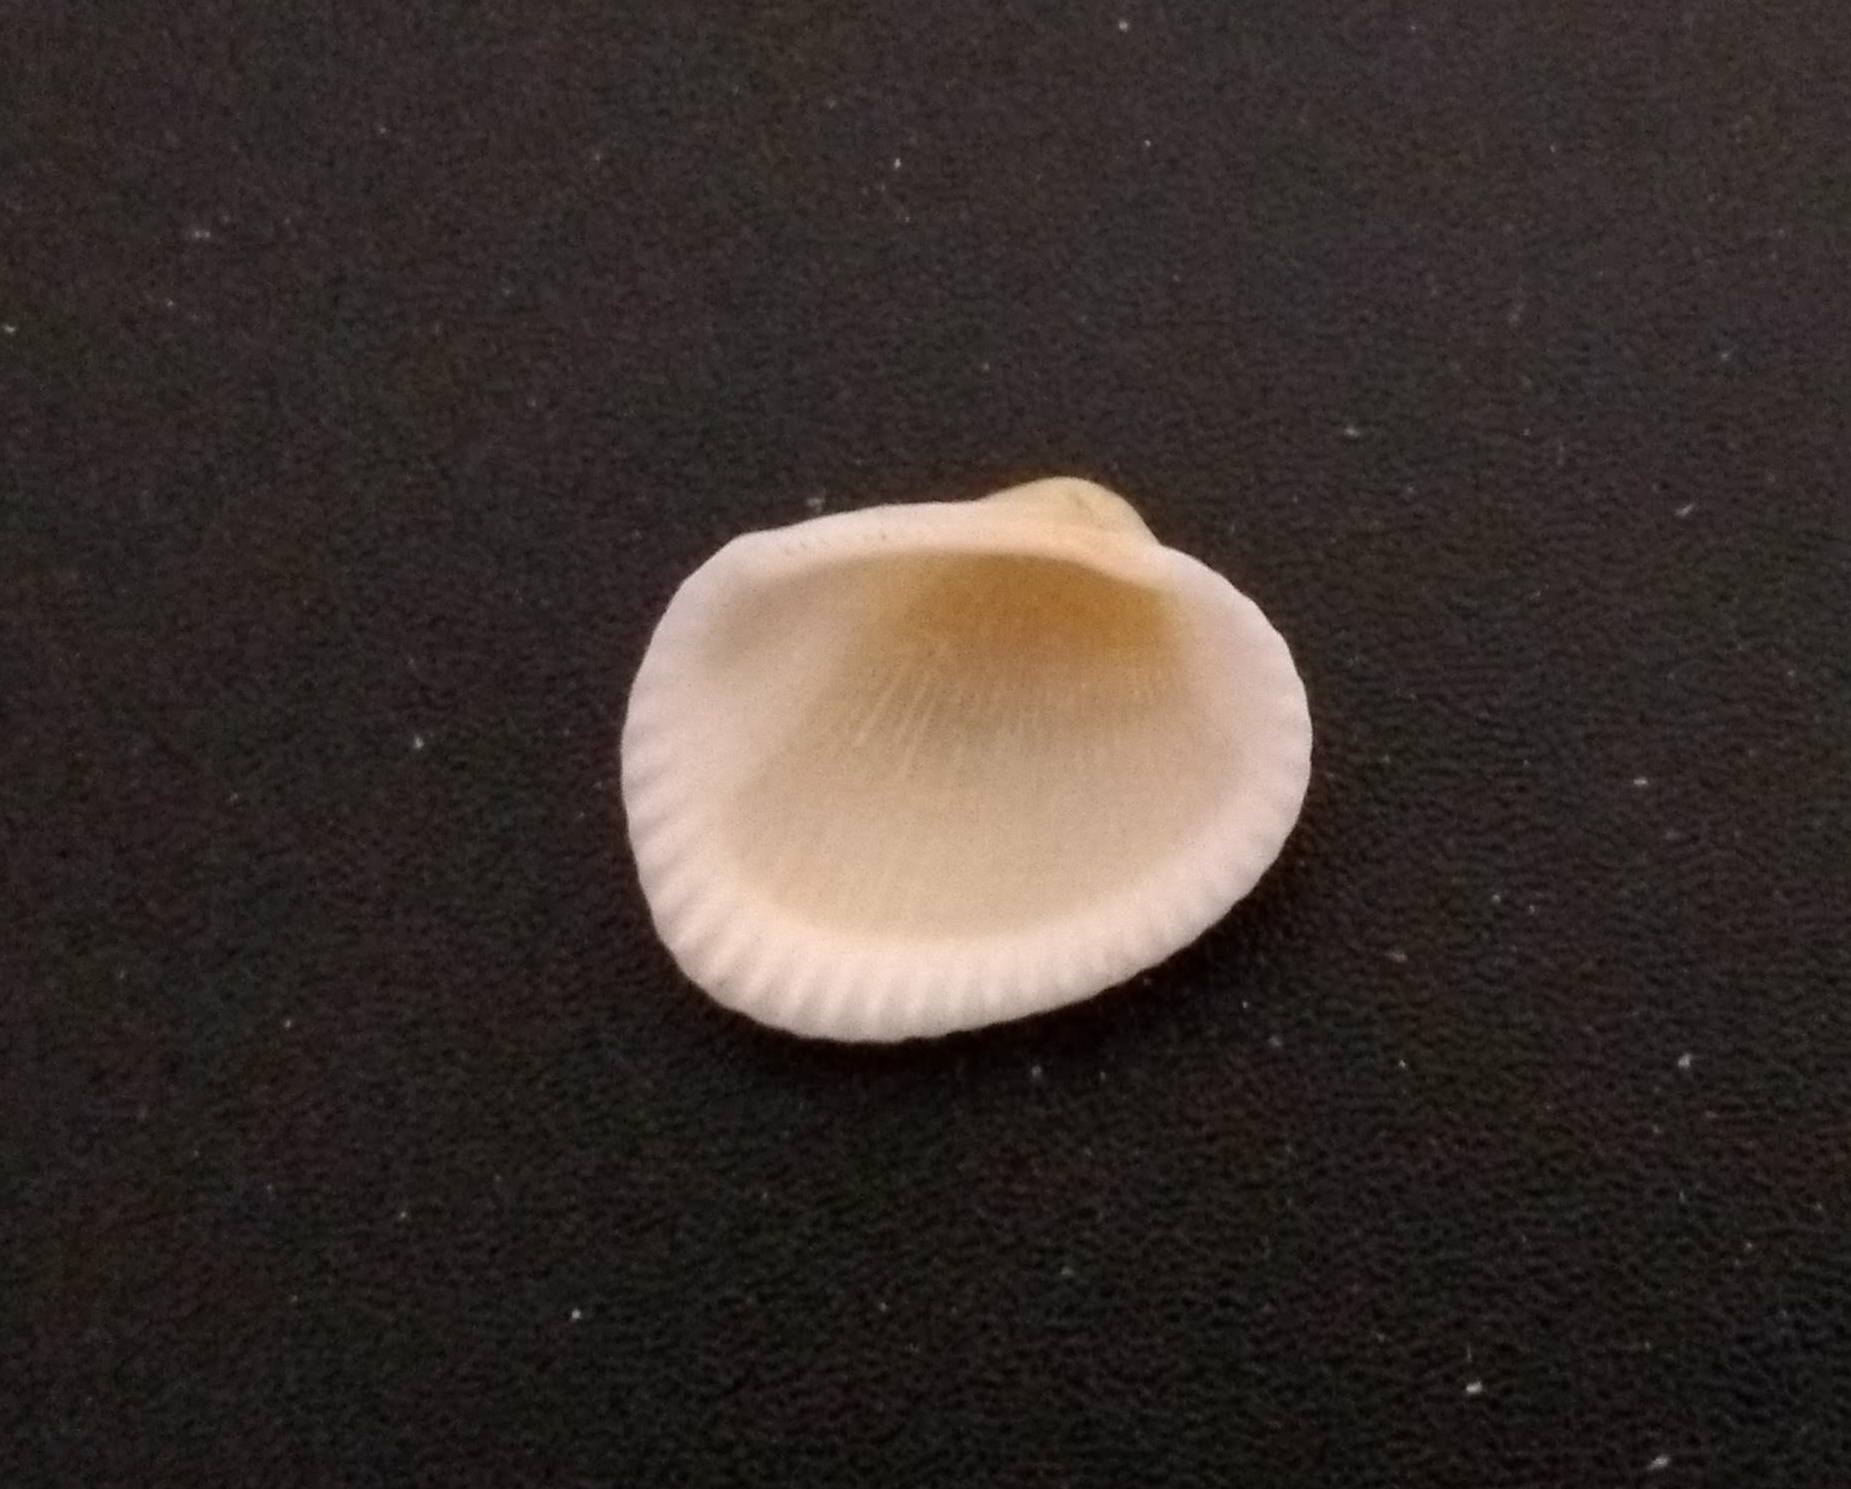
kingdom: Animalia
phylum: Mollusca
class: Bivalvia
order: Arcida
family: Arcidae
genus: Lunarca
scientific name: Lunarca ovalis
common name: Blood ark
